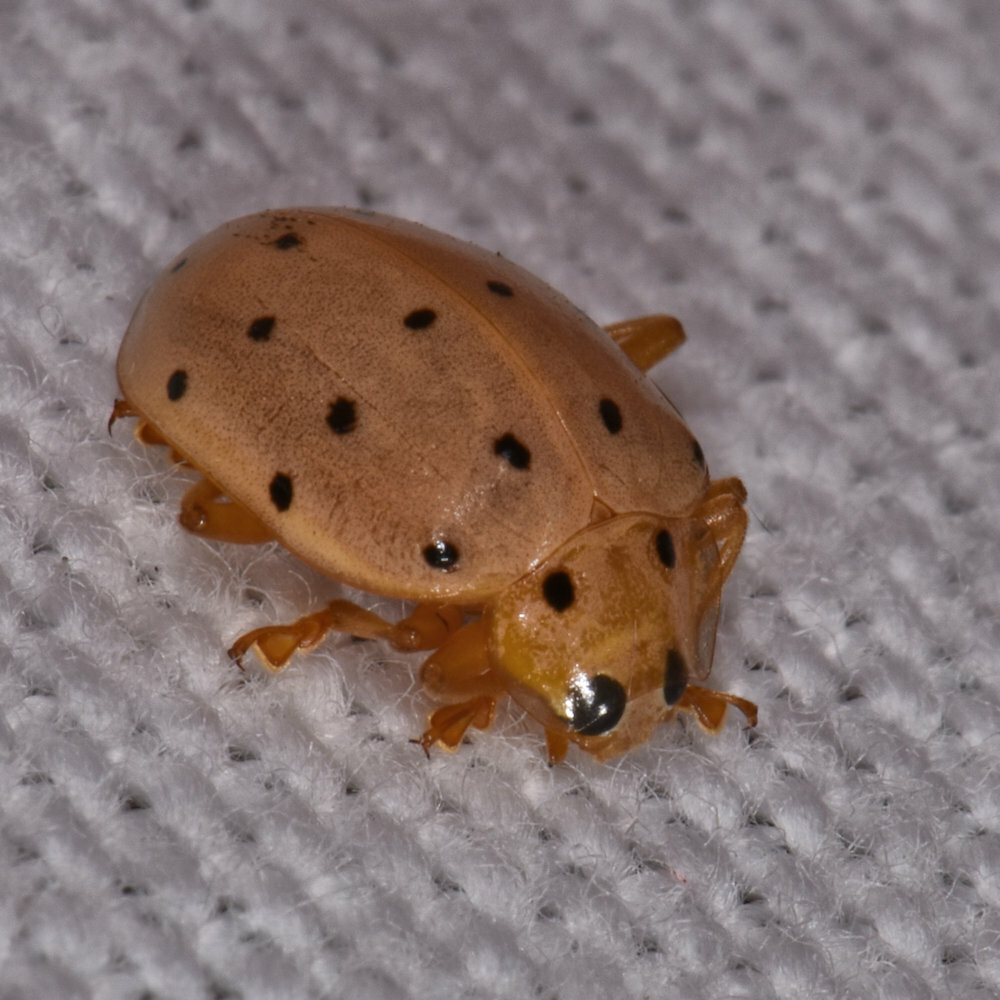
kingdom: Animalia
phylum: Arthropoda
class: Insecta
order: Coleoptera
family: Coccinellidae
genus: Neohalyzia
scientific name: Neohalyzia
